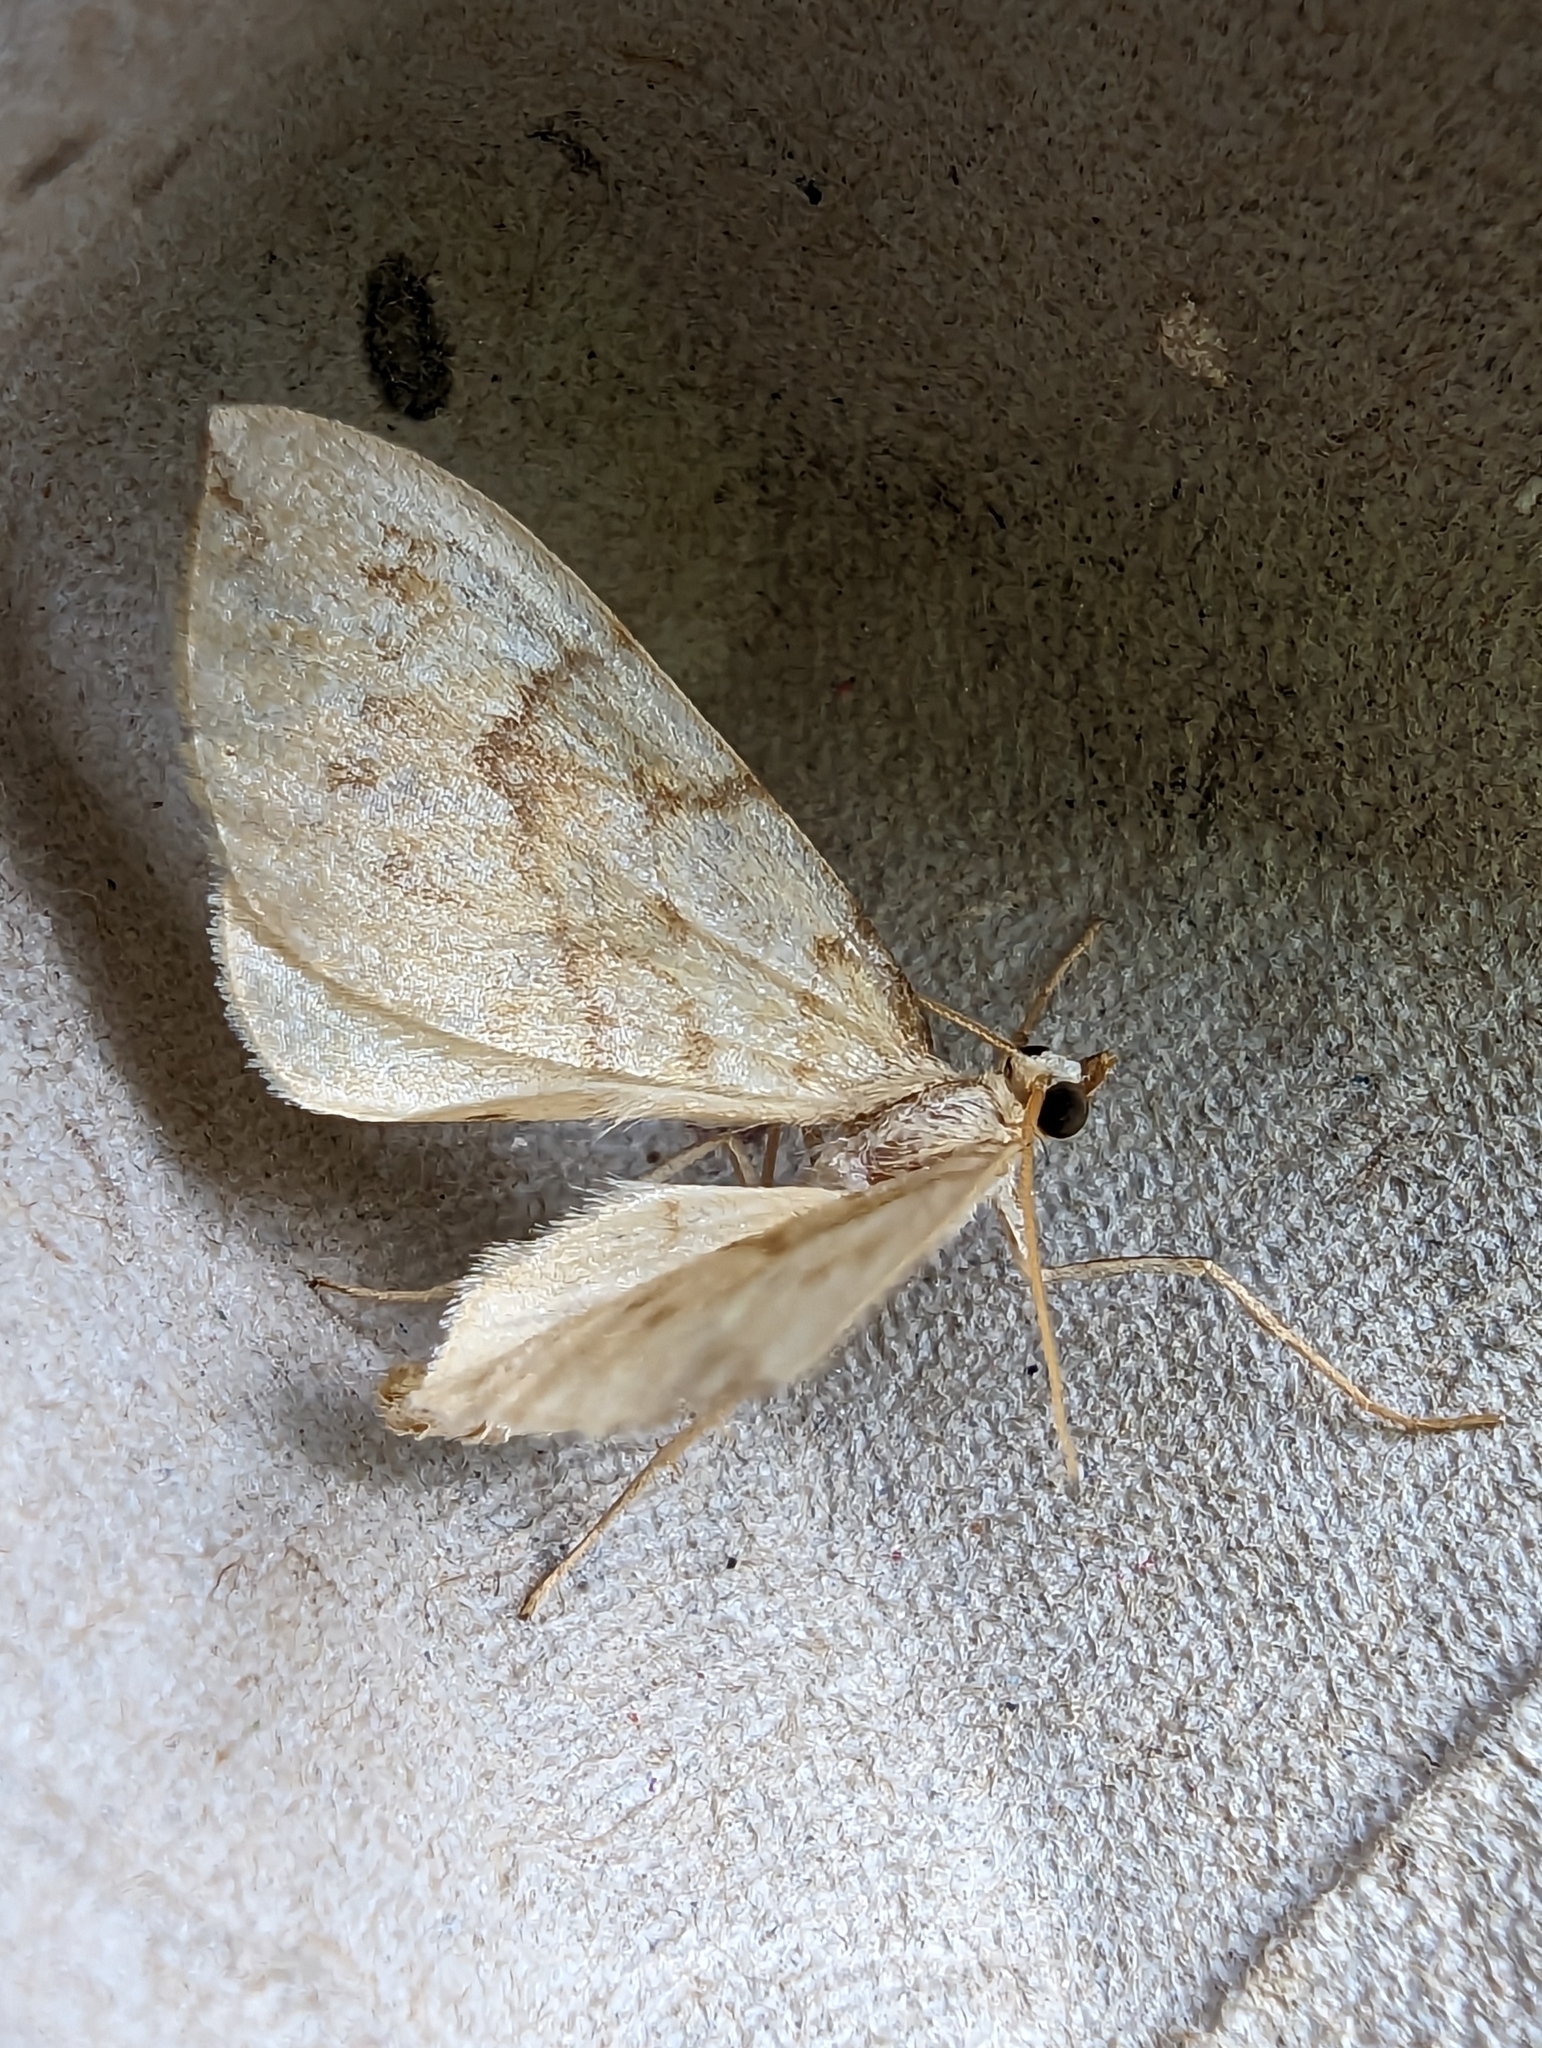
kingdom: Animalia
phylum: Arthropoda
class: Insecta
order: Lepidoptera
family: Geometridae
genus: Eulithis
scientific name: Eulithis pyraliata
